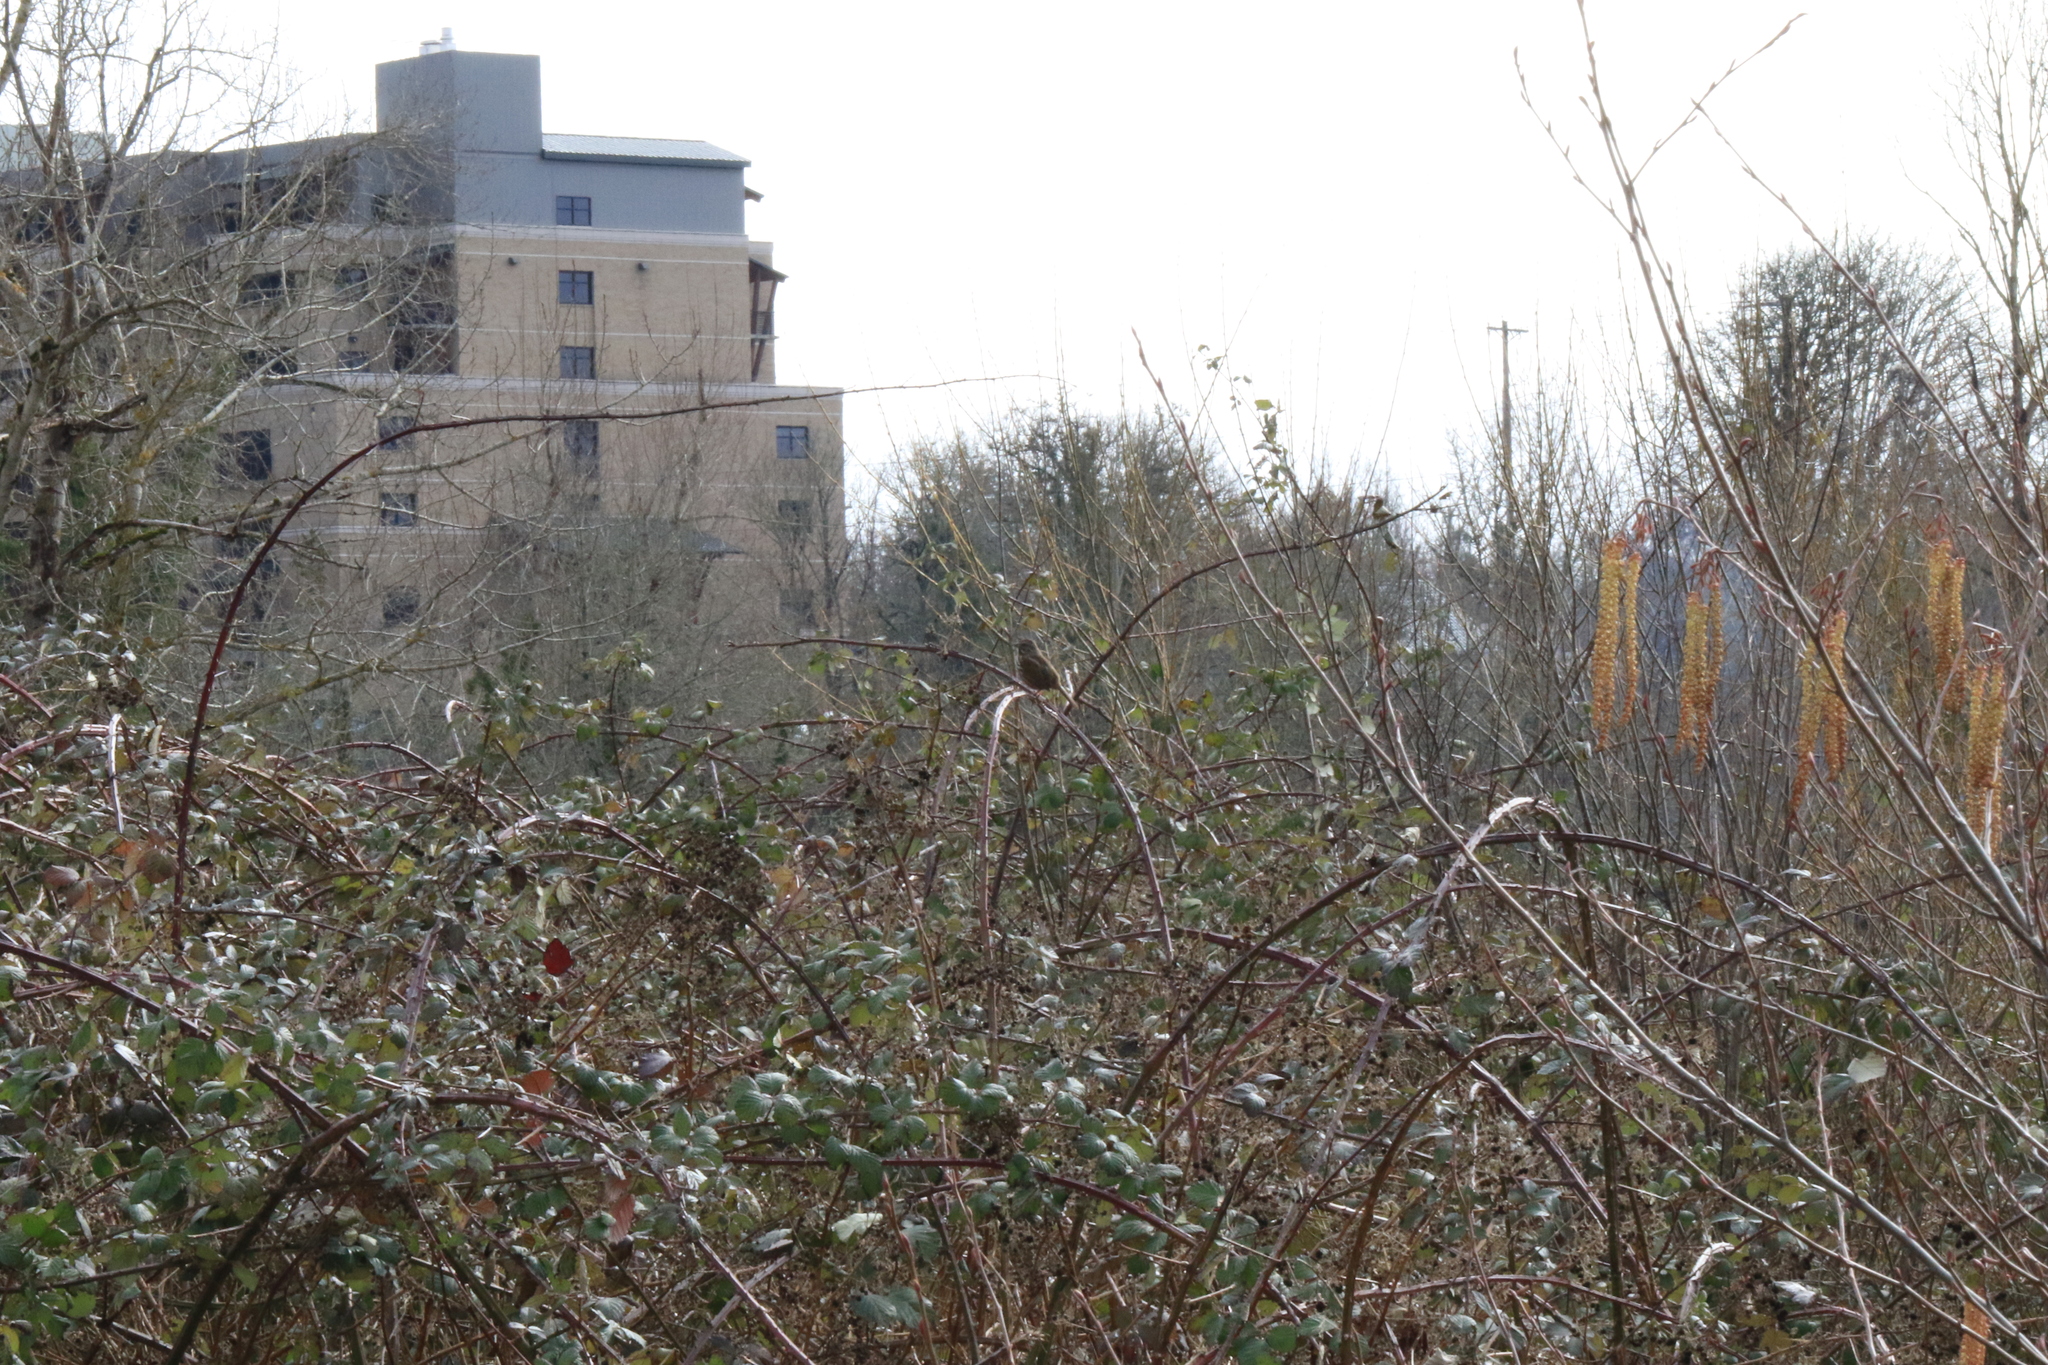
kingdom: Animalia
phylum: Chordata
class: Aves
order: Passeriformes
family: Passerellidae
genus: Melospiza
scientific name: Melospiza melodia
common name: Song sparrow
